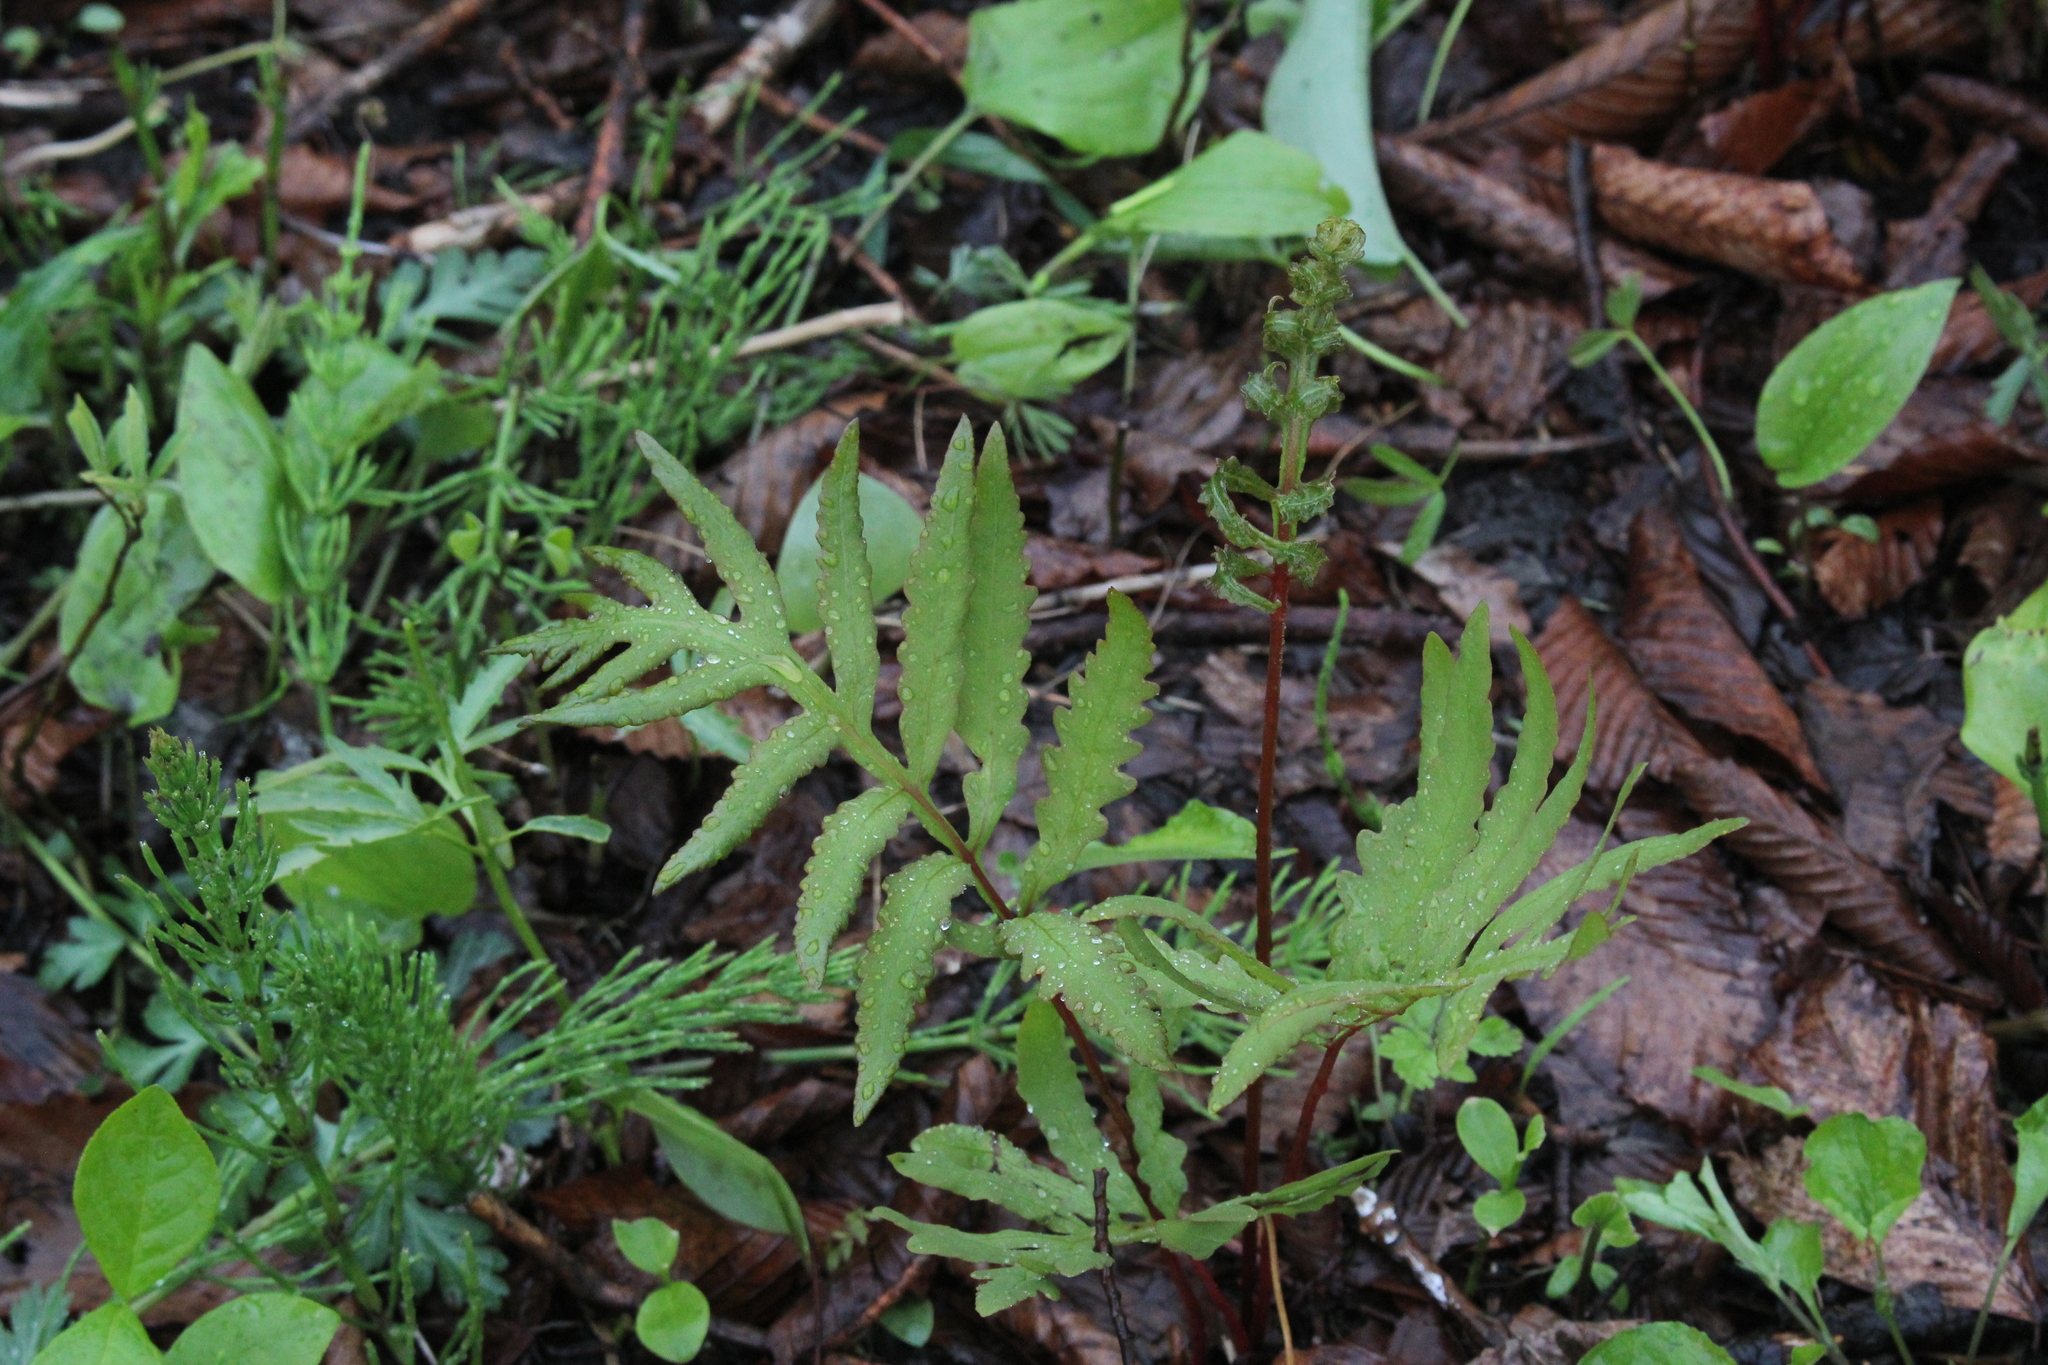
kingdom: Plantae
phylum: Tracheophyta
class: Polypodiopsida
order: Polypodiales
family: Onocleaceae
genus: Onoclea
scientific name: Onoclea sensibilis
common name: Sensitive fern
